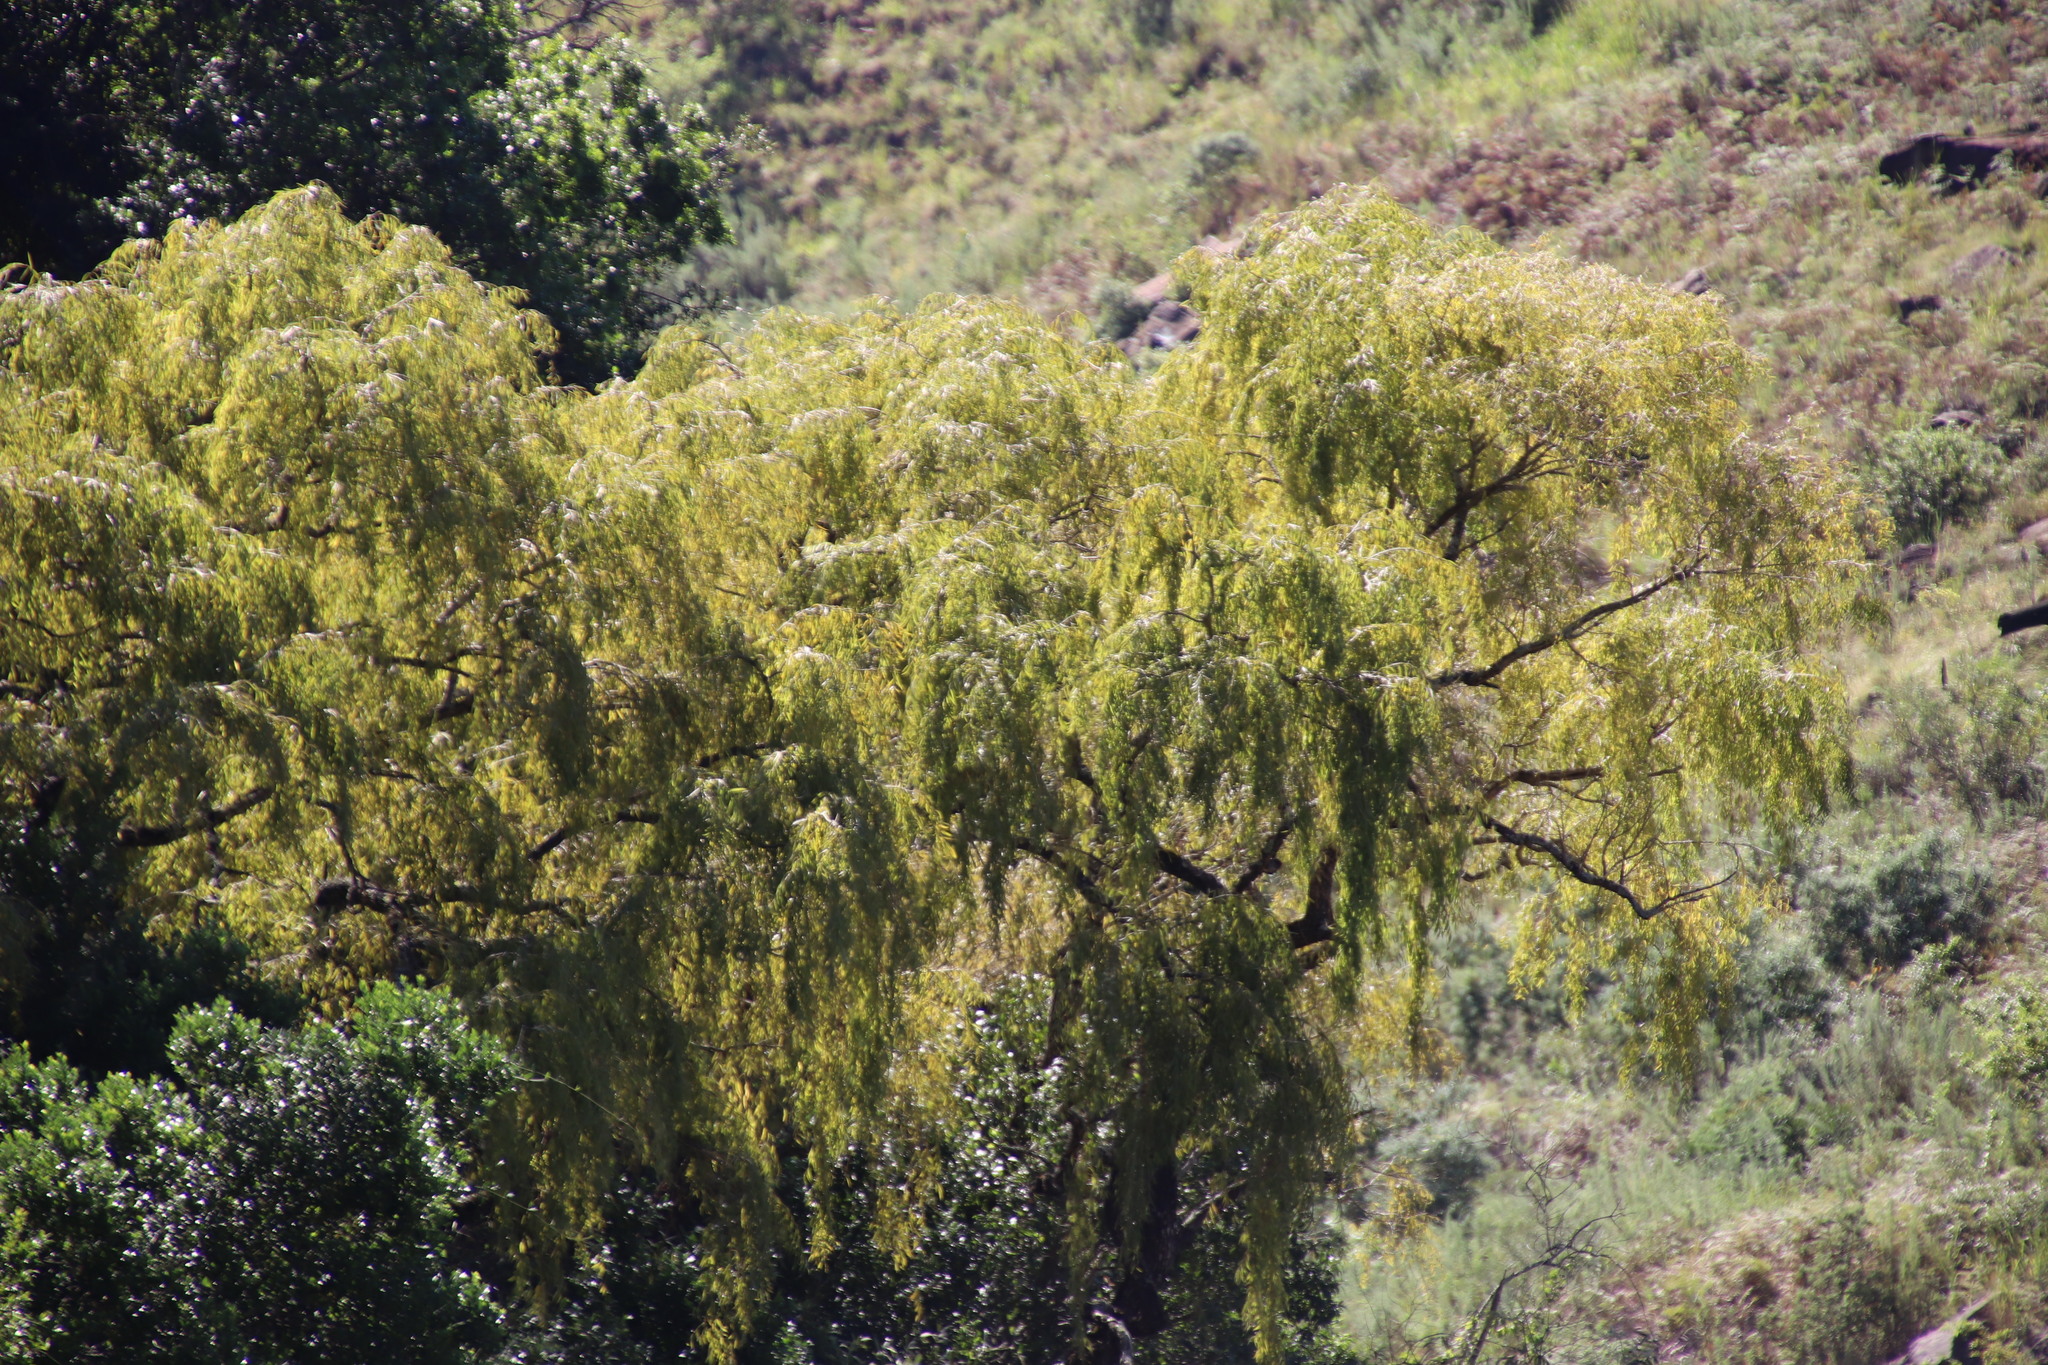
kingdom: Plantae
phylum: Tracheophyta
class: Magnoliopsida
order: Malpighiales
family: Salicaceae
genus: Salix
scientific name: Salix babylonica
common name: Weeping willow
